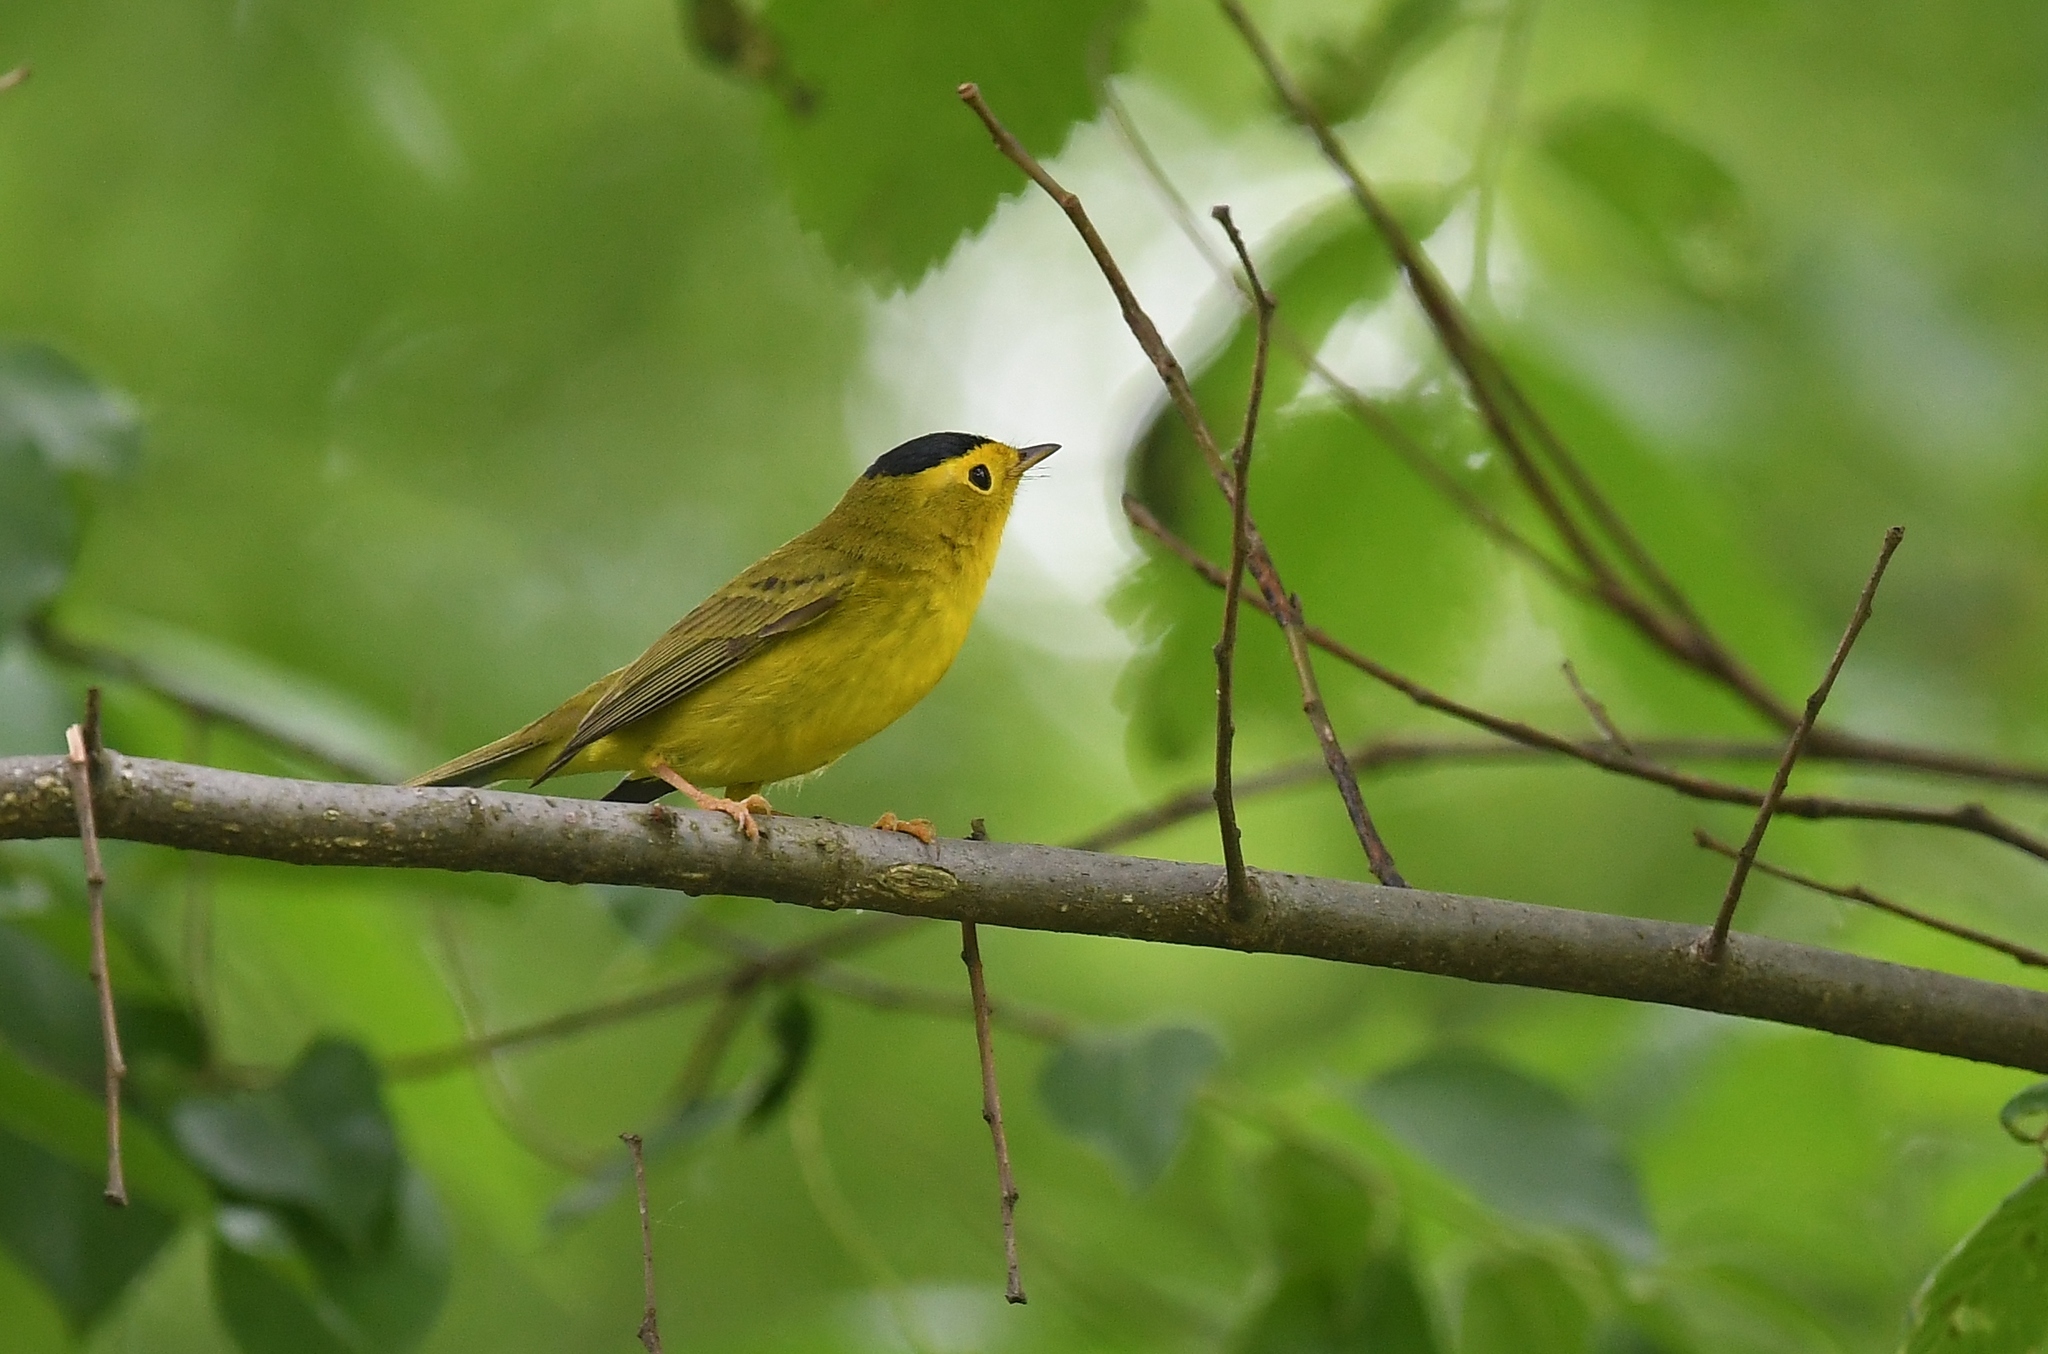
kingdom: Animalia
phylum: Chordata
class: Aves
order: Passeriformes
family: Parulidae
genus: Cardellina
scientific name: Cardellina pusilla
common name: Wilson's warbler
